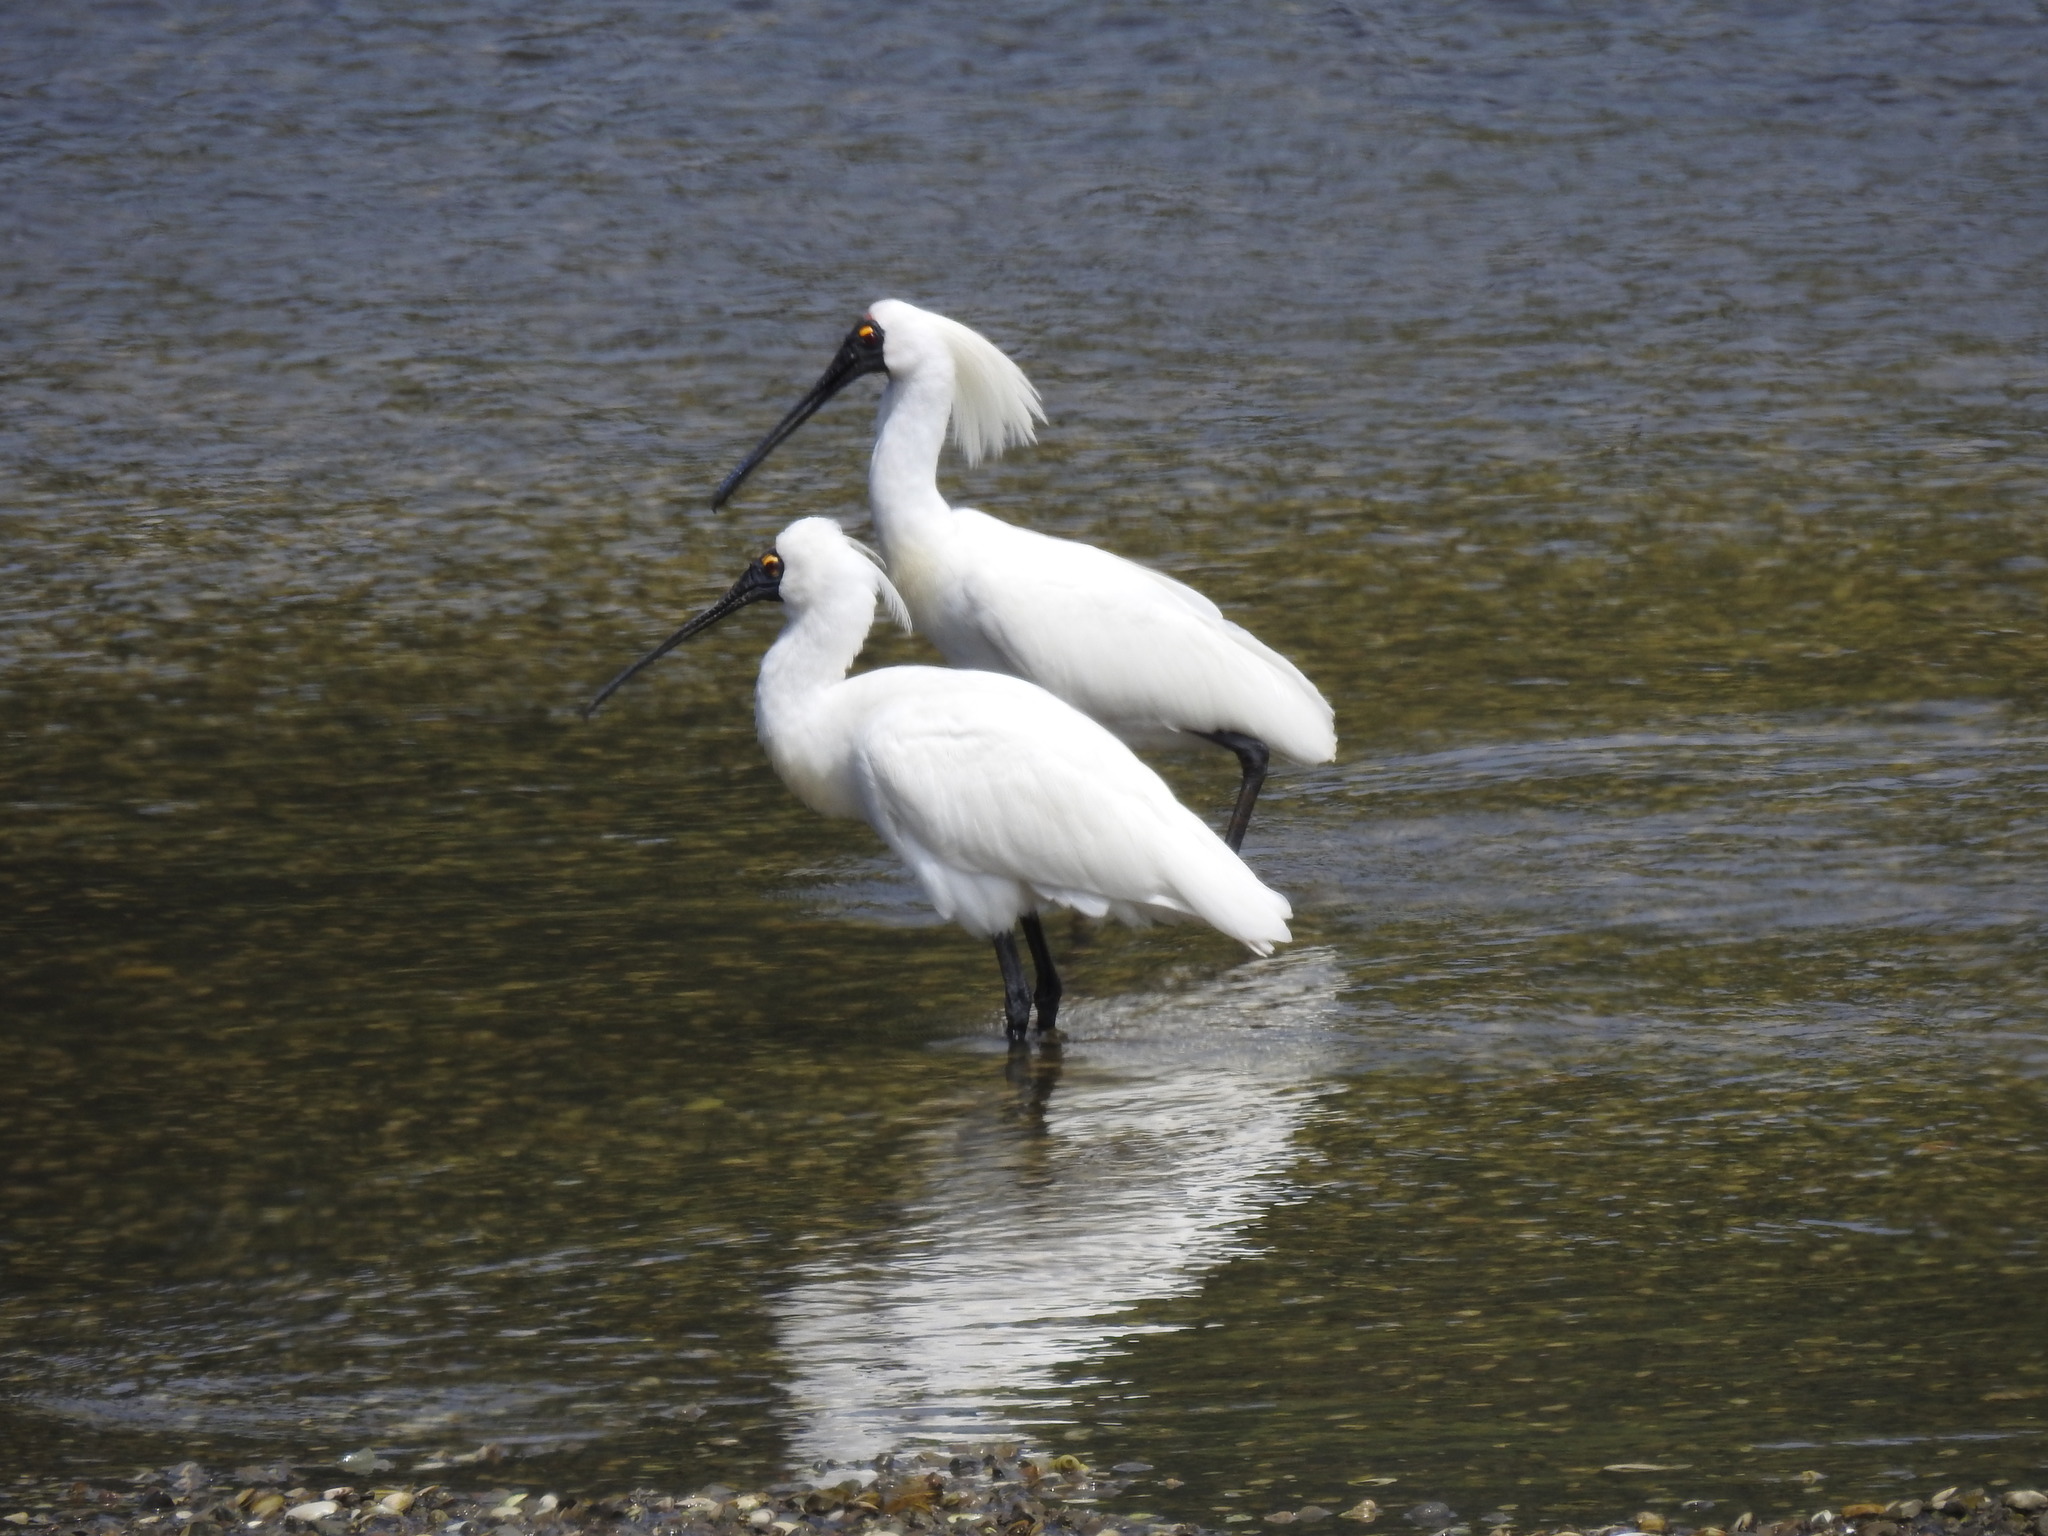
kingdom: Animalia
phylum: Chordata
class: Aves
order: Pelecaniformes
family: Threskiornithidae
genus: Platalea
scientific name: Platalea regia
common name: Royal spoonbill
